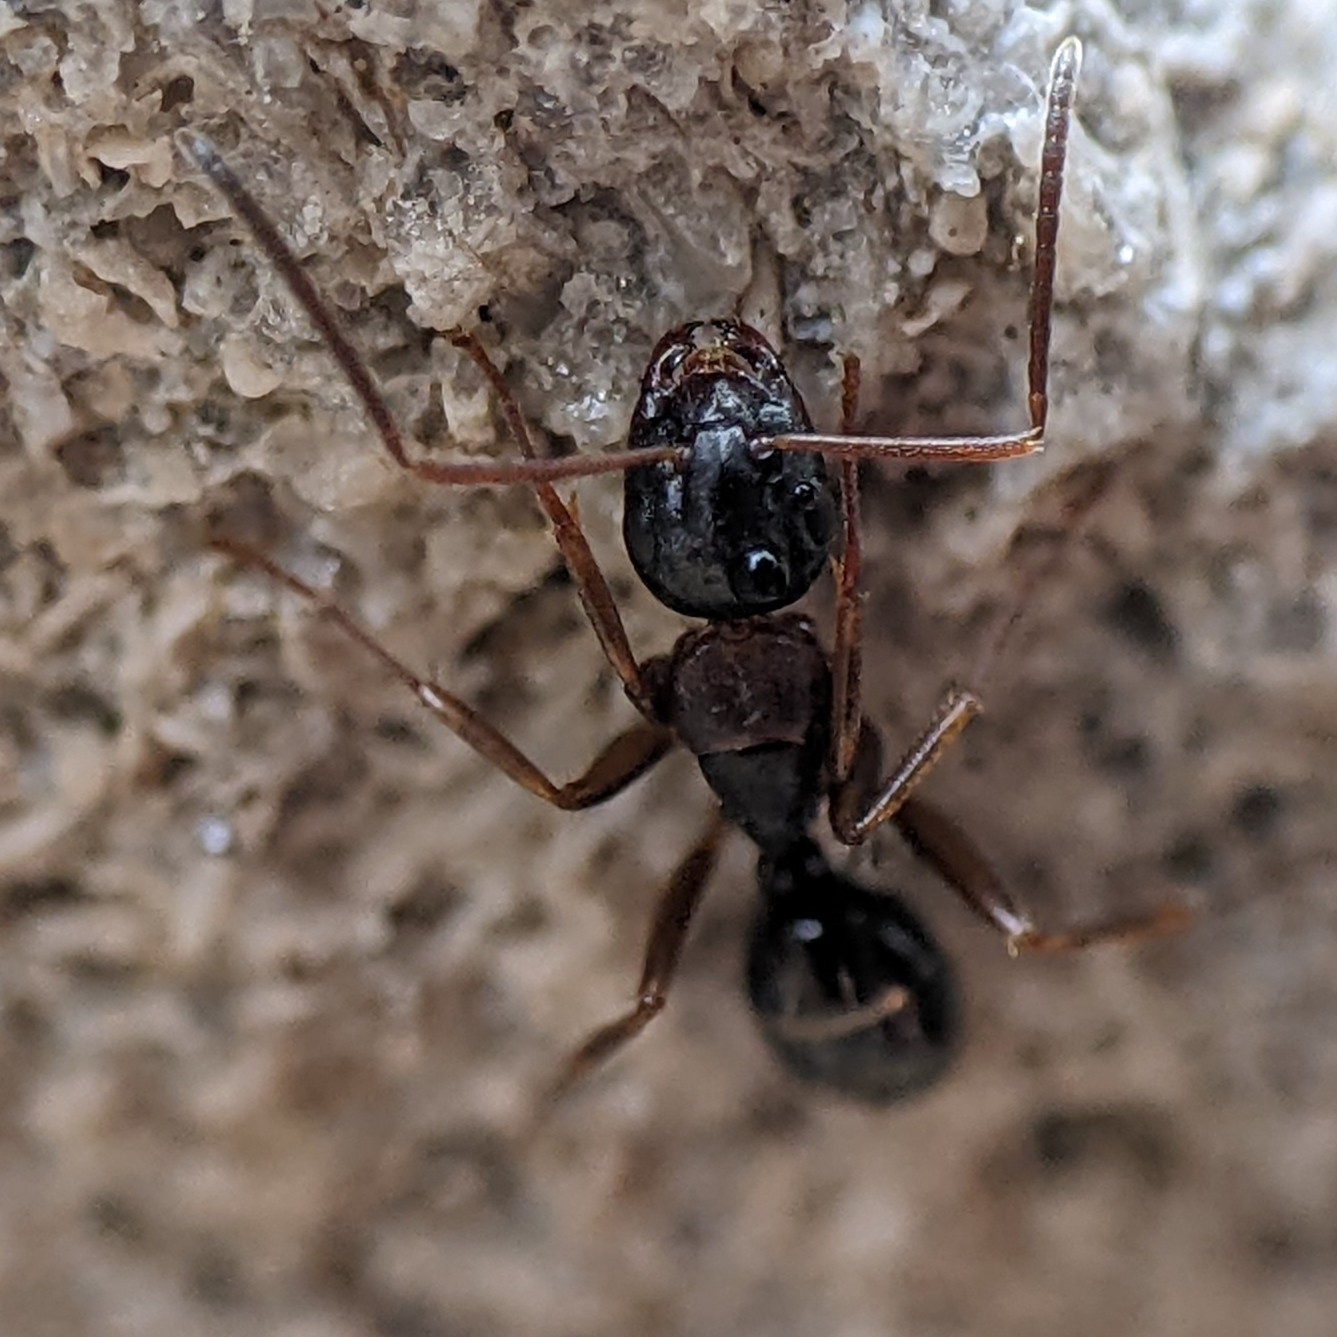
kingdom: Animalia
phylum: Arthropoda
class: Insecta
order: Hymenoptera
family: Formicidae
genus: Camponotus
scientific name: Camponotus nearcticus
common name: Smaller carpenter ant
